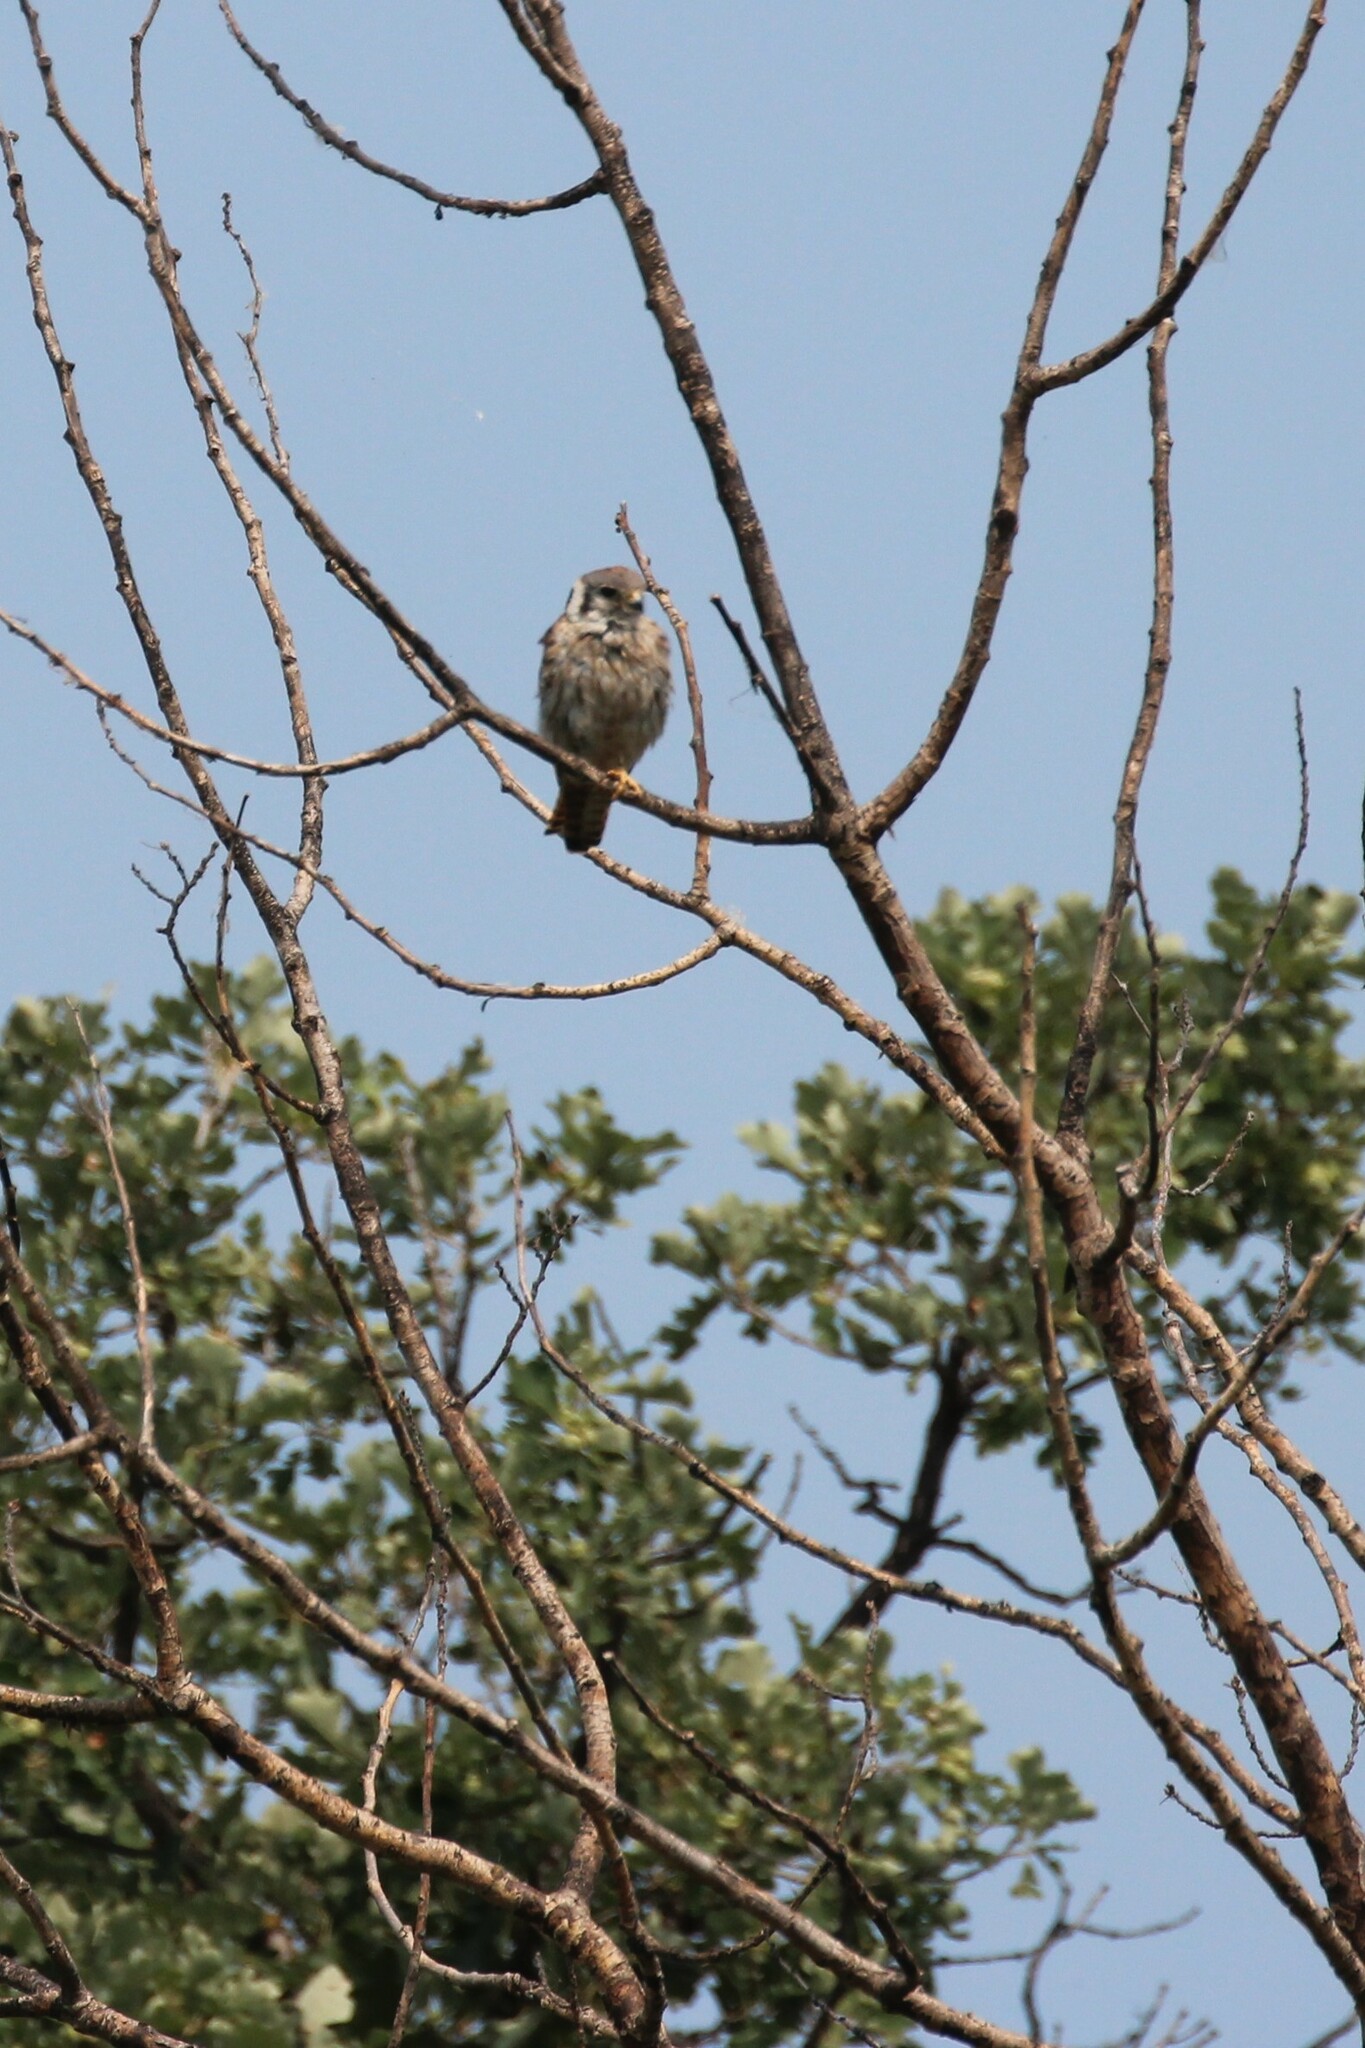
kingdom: Animalia
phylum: Chordata
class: Aves
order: Falconiformes
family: Falconidae
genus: Falco
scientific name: Falco sparverius
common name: American kestrel
